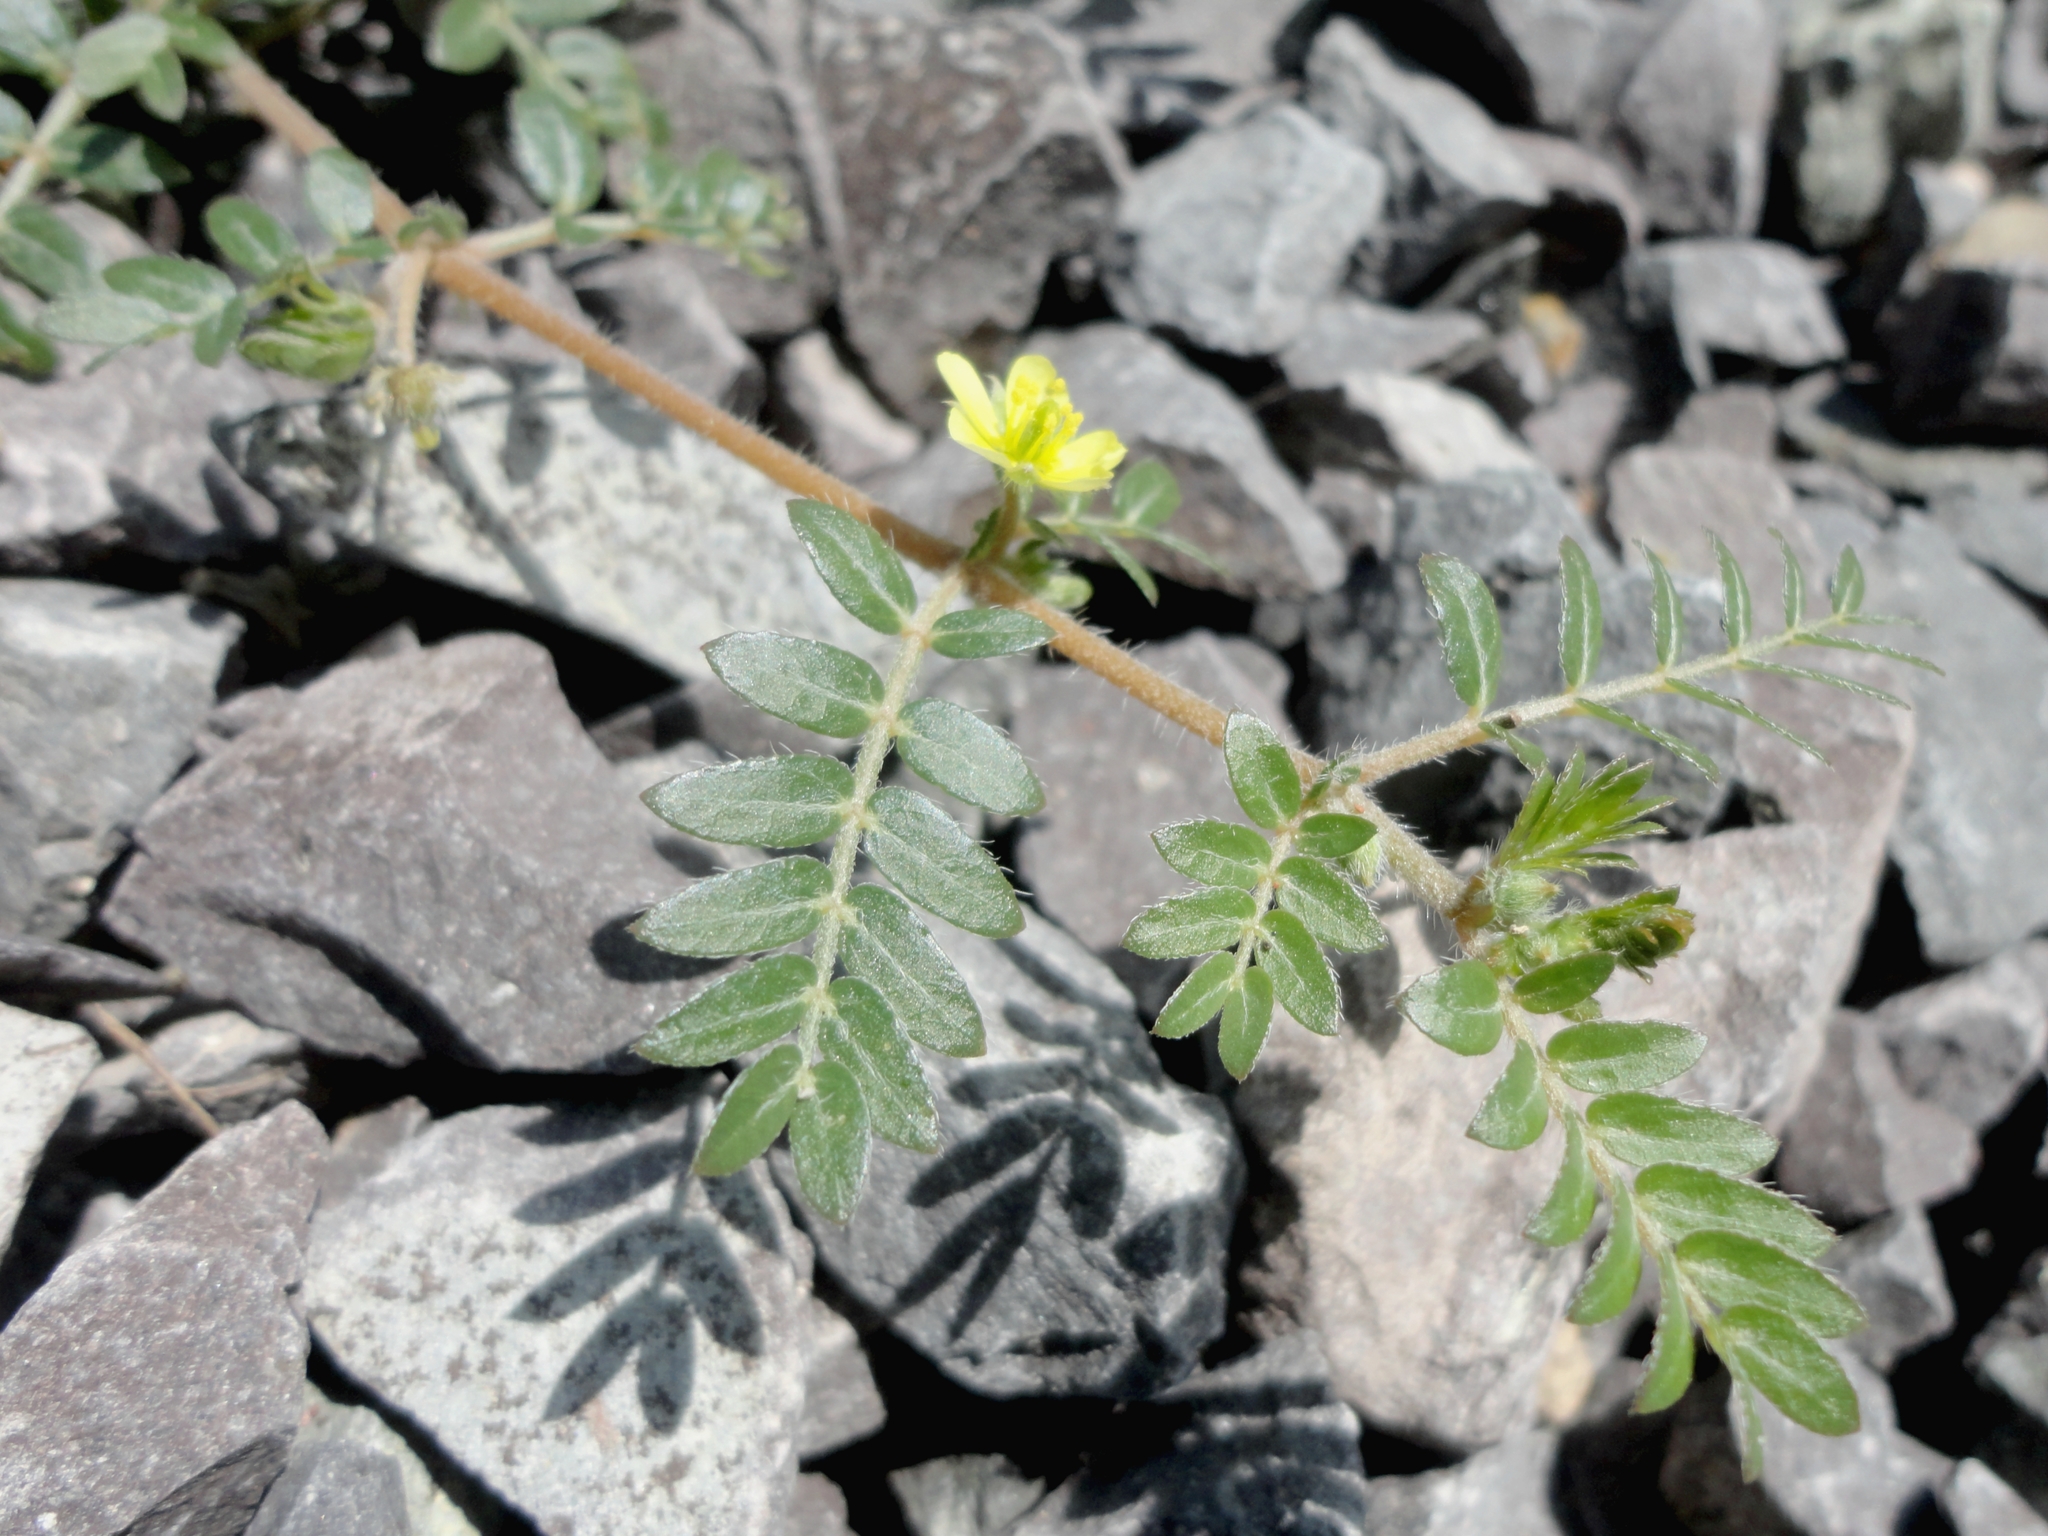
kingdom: Plantae
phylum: Tracheophyta
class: Magnoliopsida
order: Zygophyllales
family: Zygophyllaceae
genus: Tribulus
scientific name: Tribulus terrestris
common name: Puncturevine
